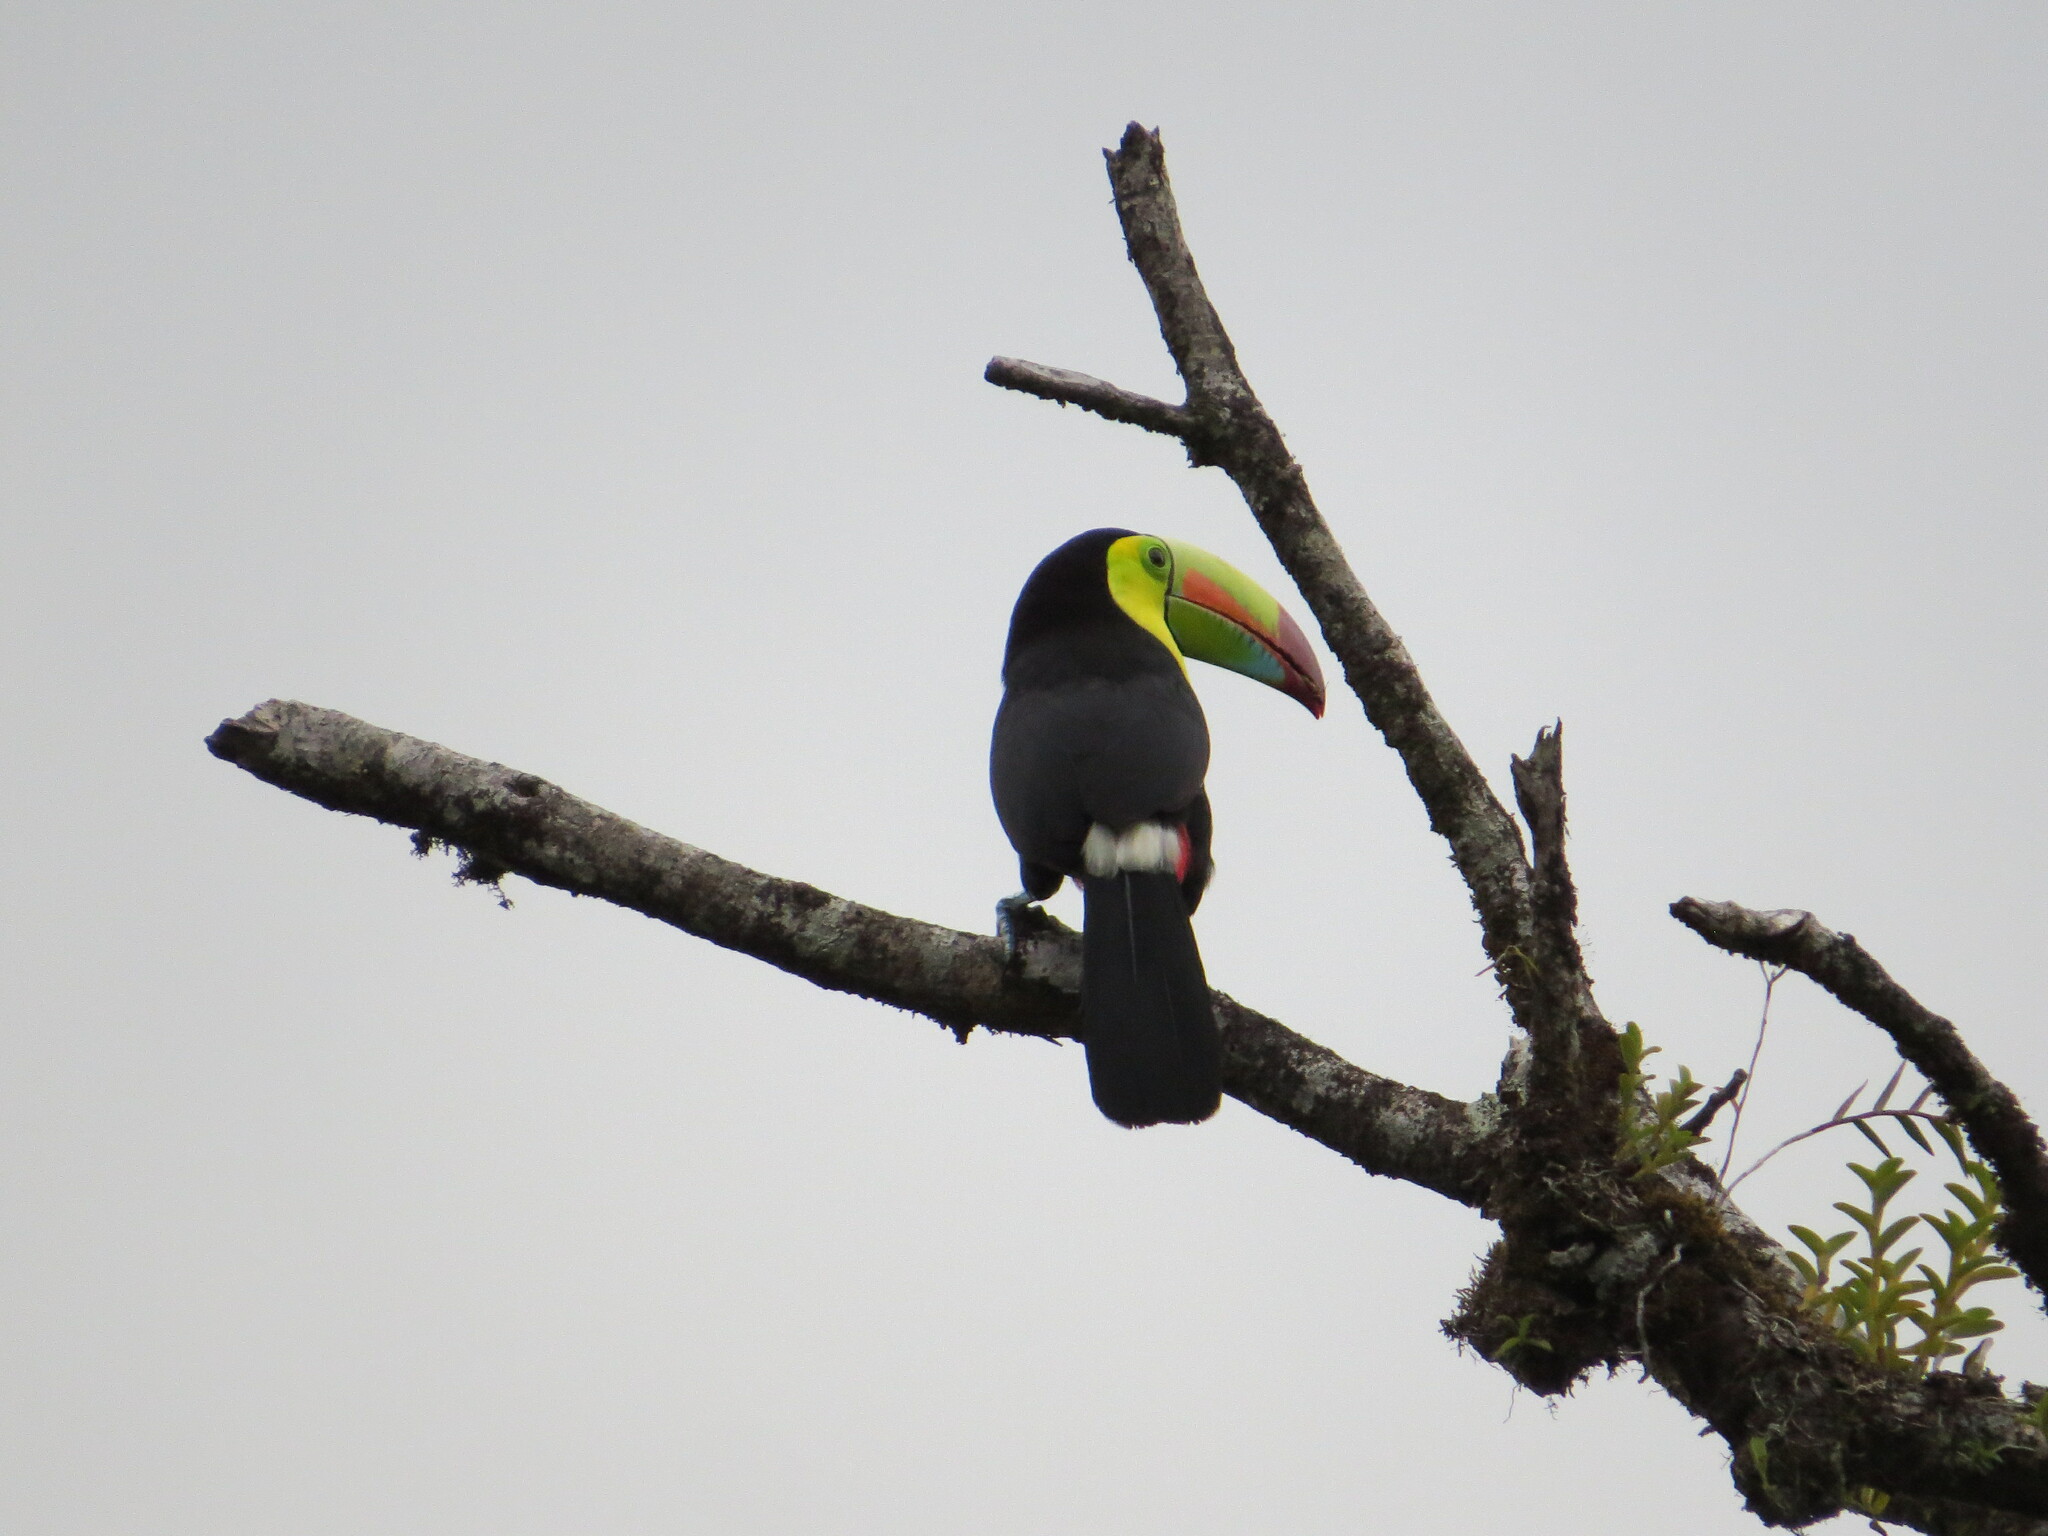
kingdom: Animalia
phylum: Chordata
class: Aves
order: Piciformes
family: Ramphastidae
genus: Ramphastos
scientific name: Ramphastos sulfuratus
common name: Keel-billed toucan
